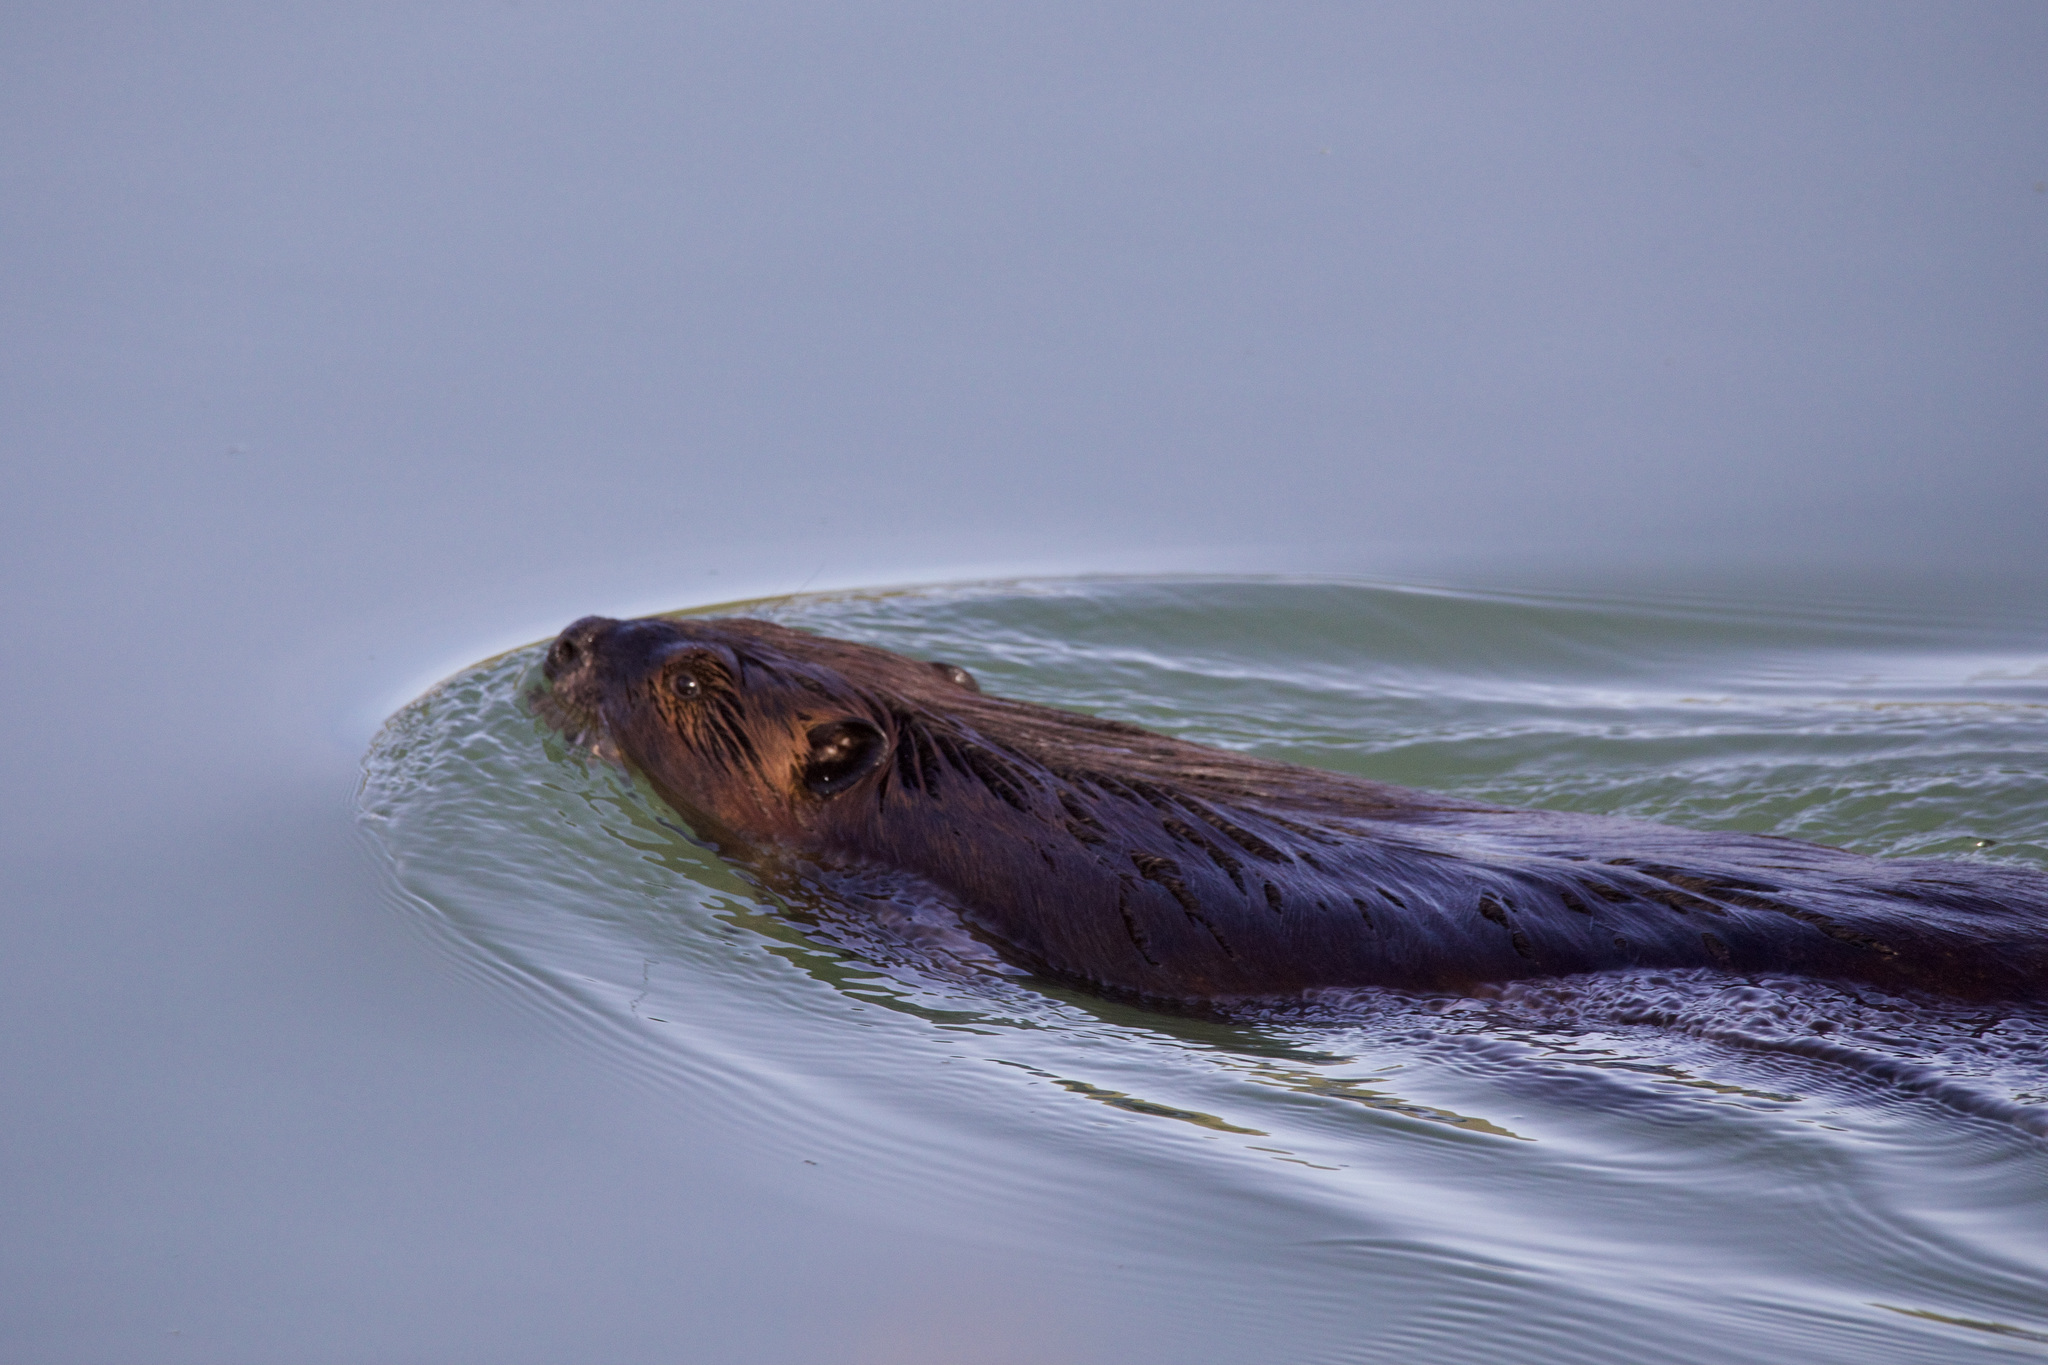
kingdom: Animalia
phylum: Chordata
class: Mammalia
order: Rodentia
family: Castoridae
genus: Castor
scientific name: Castor canadensis
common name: American beaver
